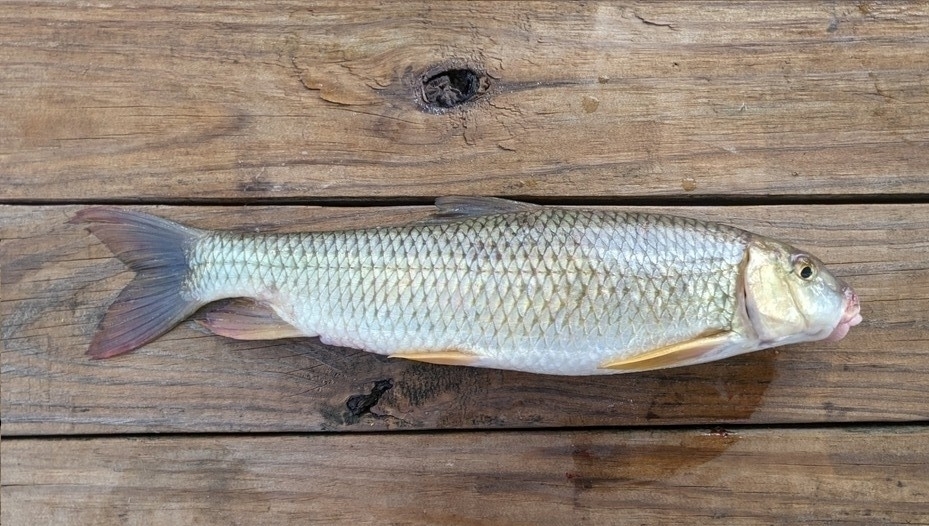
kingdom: Animalia
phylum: Chordata
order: Cypriniformes
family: Catostomidae
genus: Moxostoma
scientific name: Moxostoma macrolepidotum
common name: Shorthead redhorse
